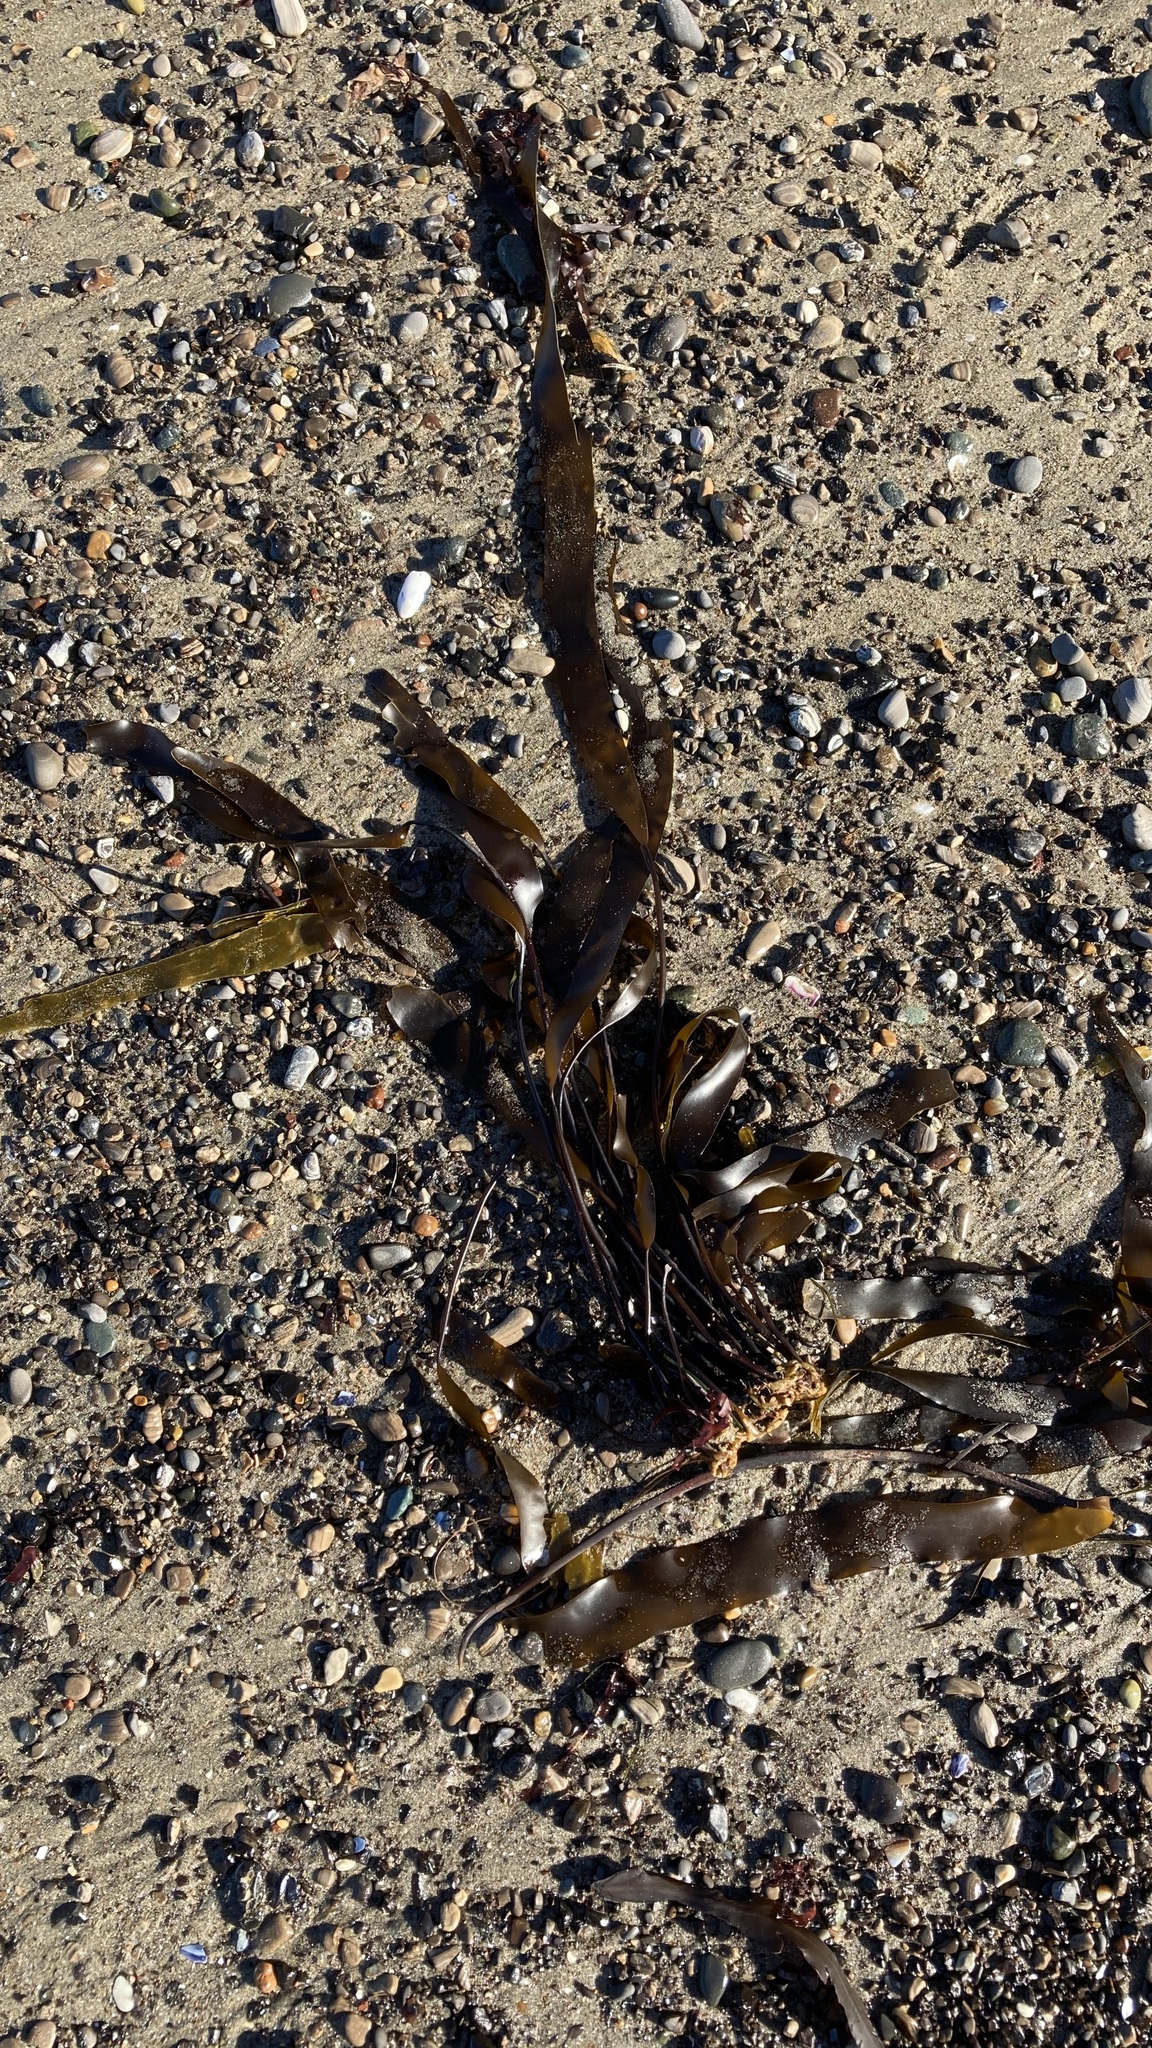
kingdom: Chromista
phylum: Ochrophyta
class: Phaeophyceae
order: Laminariales
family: Laminariaceae
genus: Laminaria
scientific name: Laminaria sinclairii
